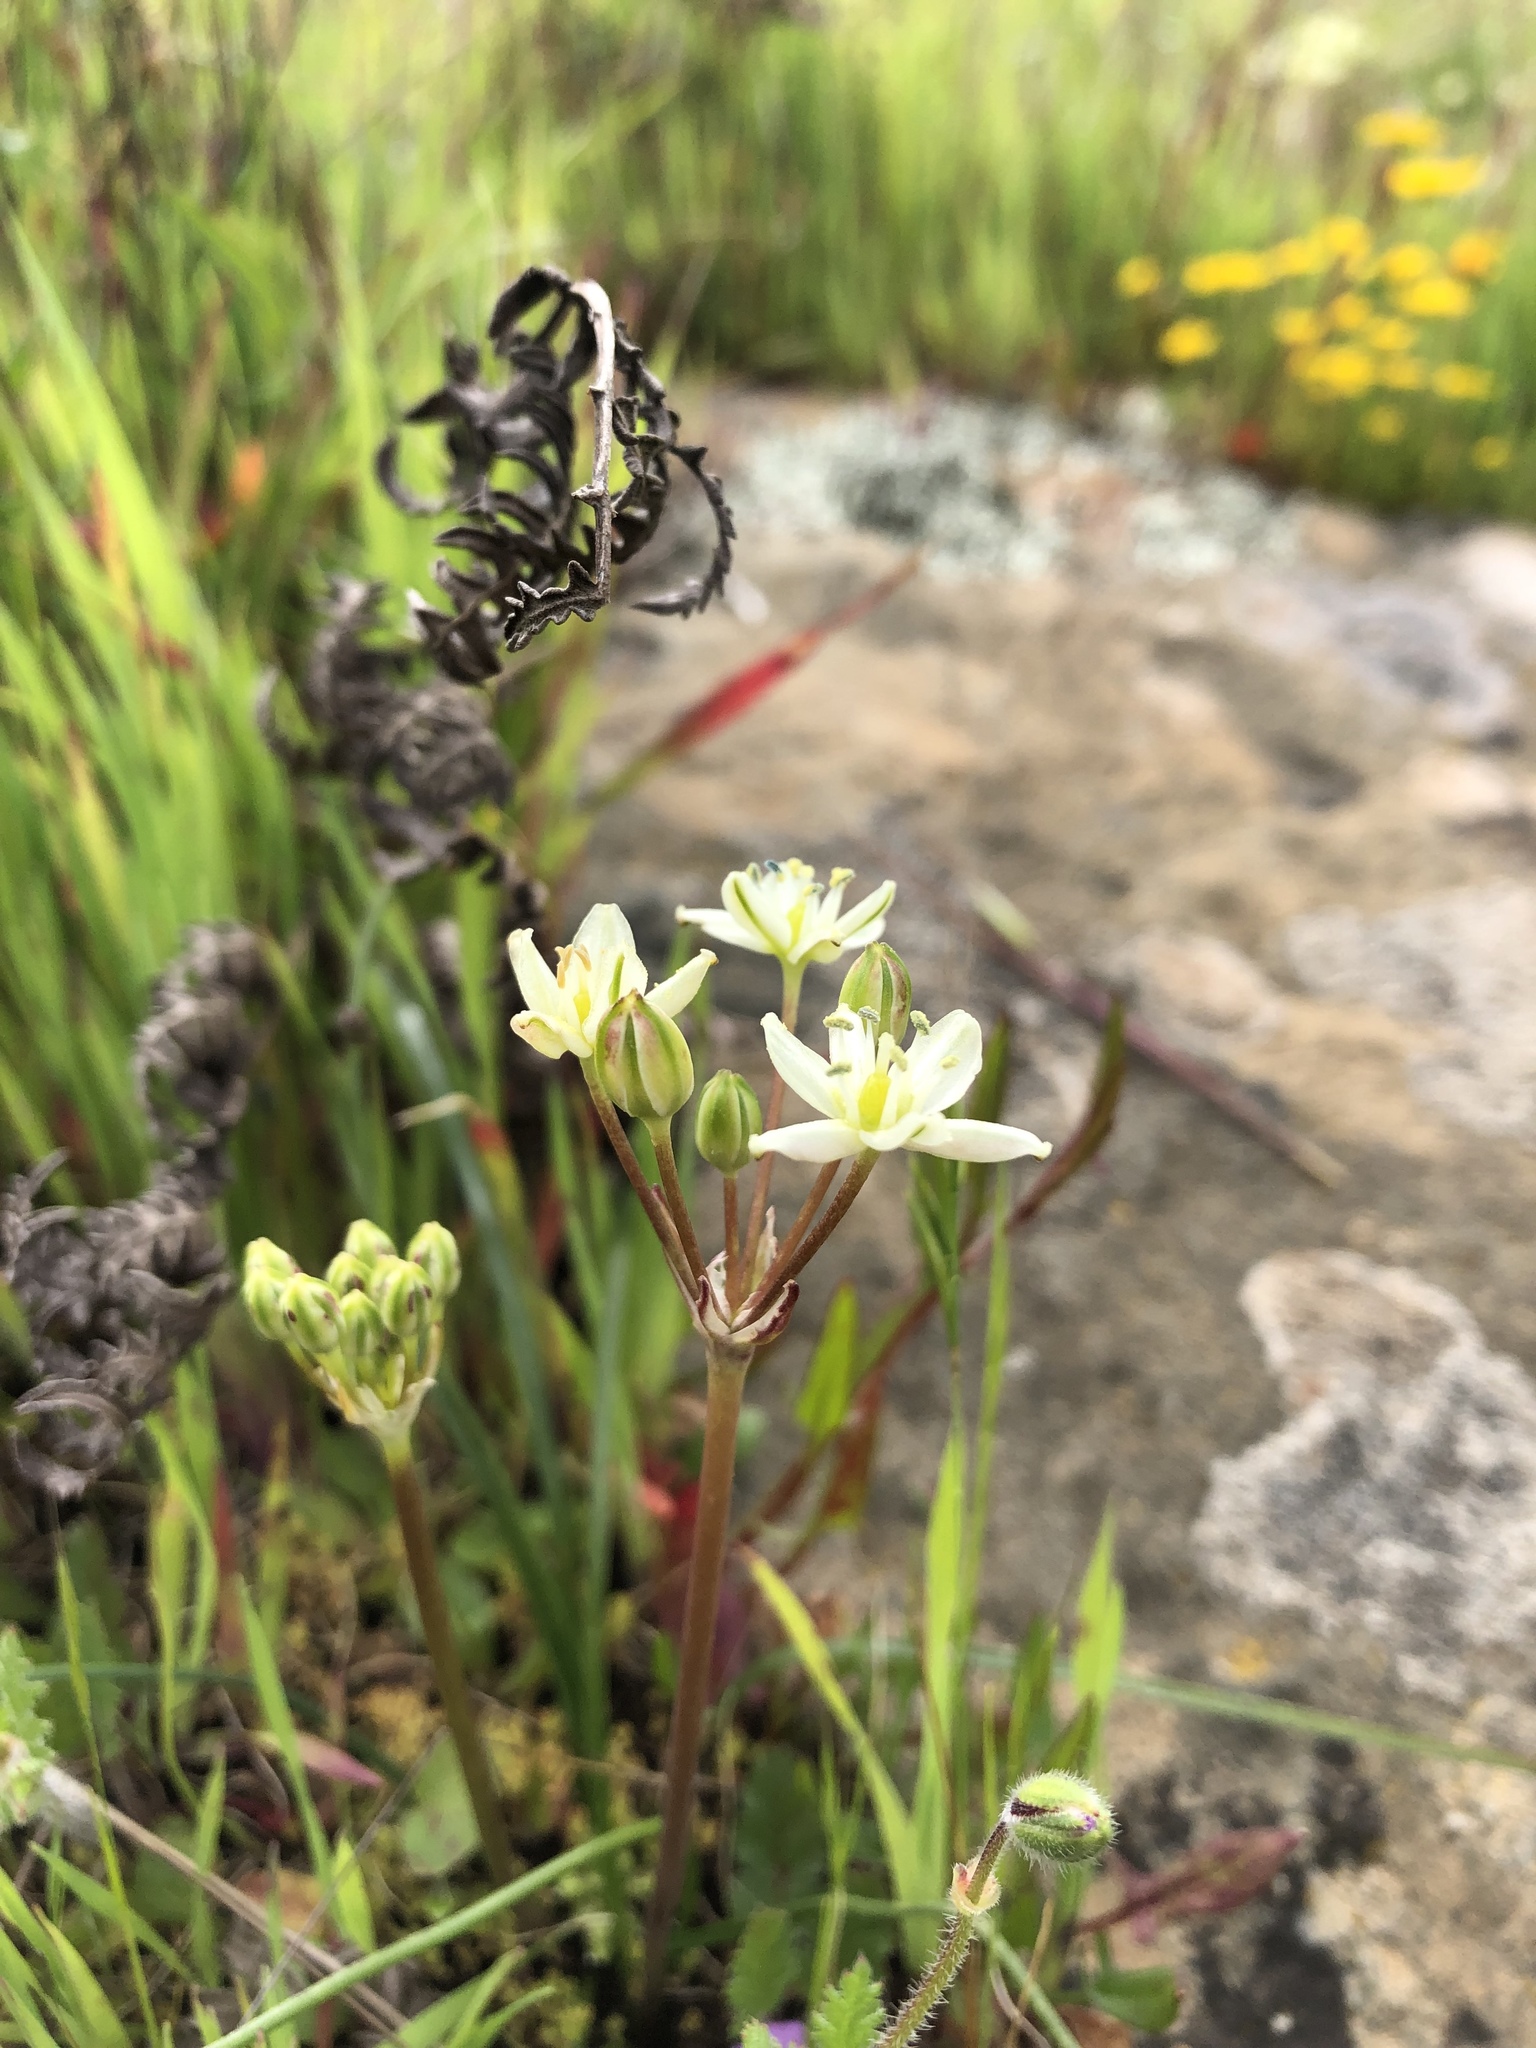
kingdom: Plantae
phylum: Tracheophyta
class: Liliopsida
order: Asparagales
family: Asparagaceae
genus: Muilla
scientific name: Muilla maritima
